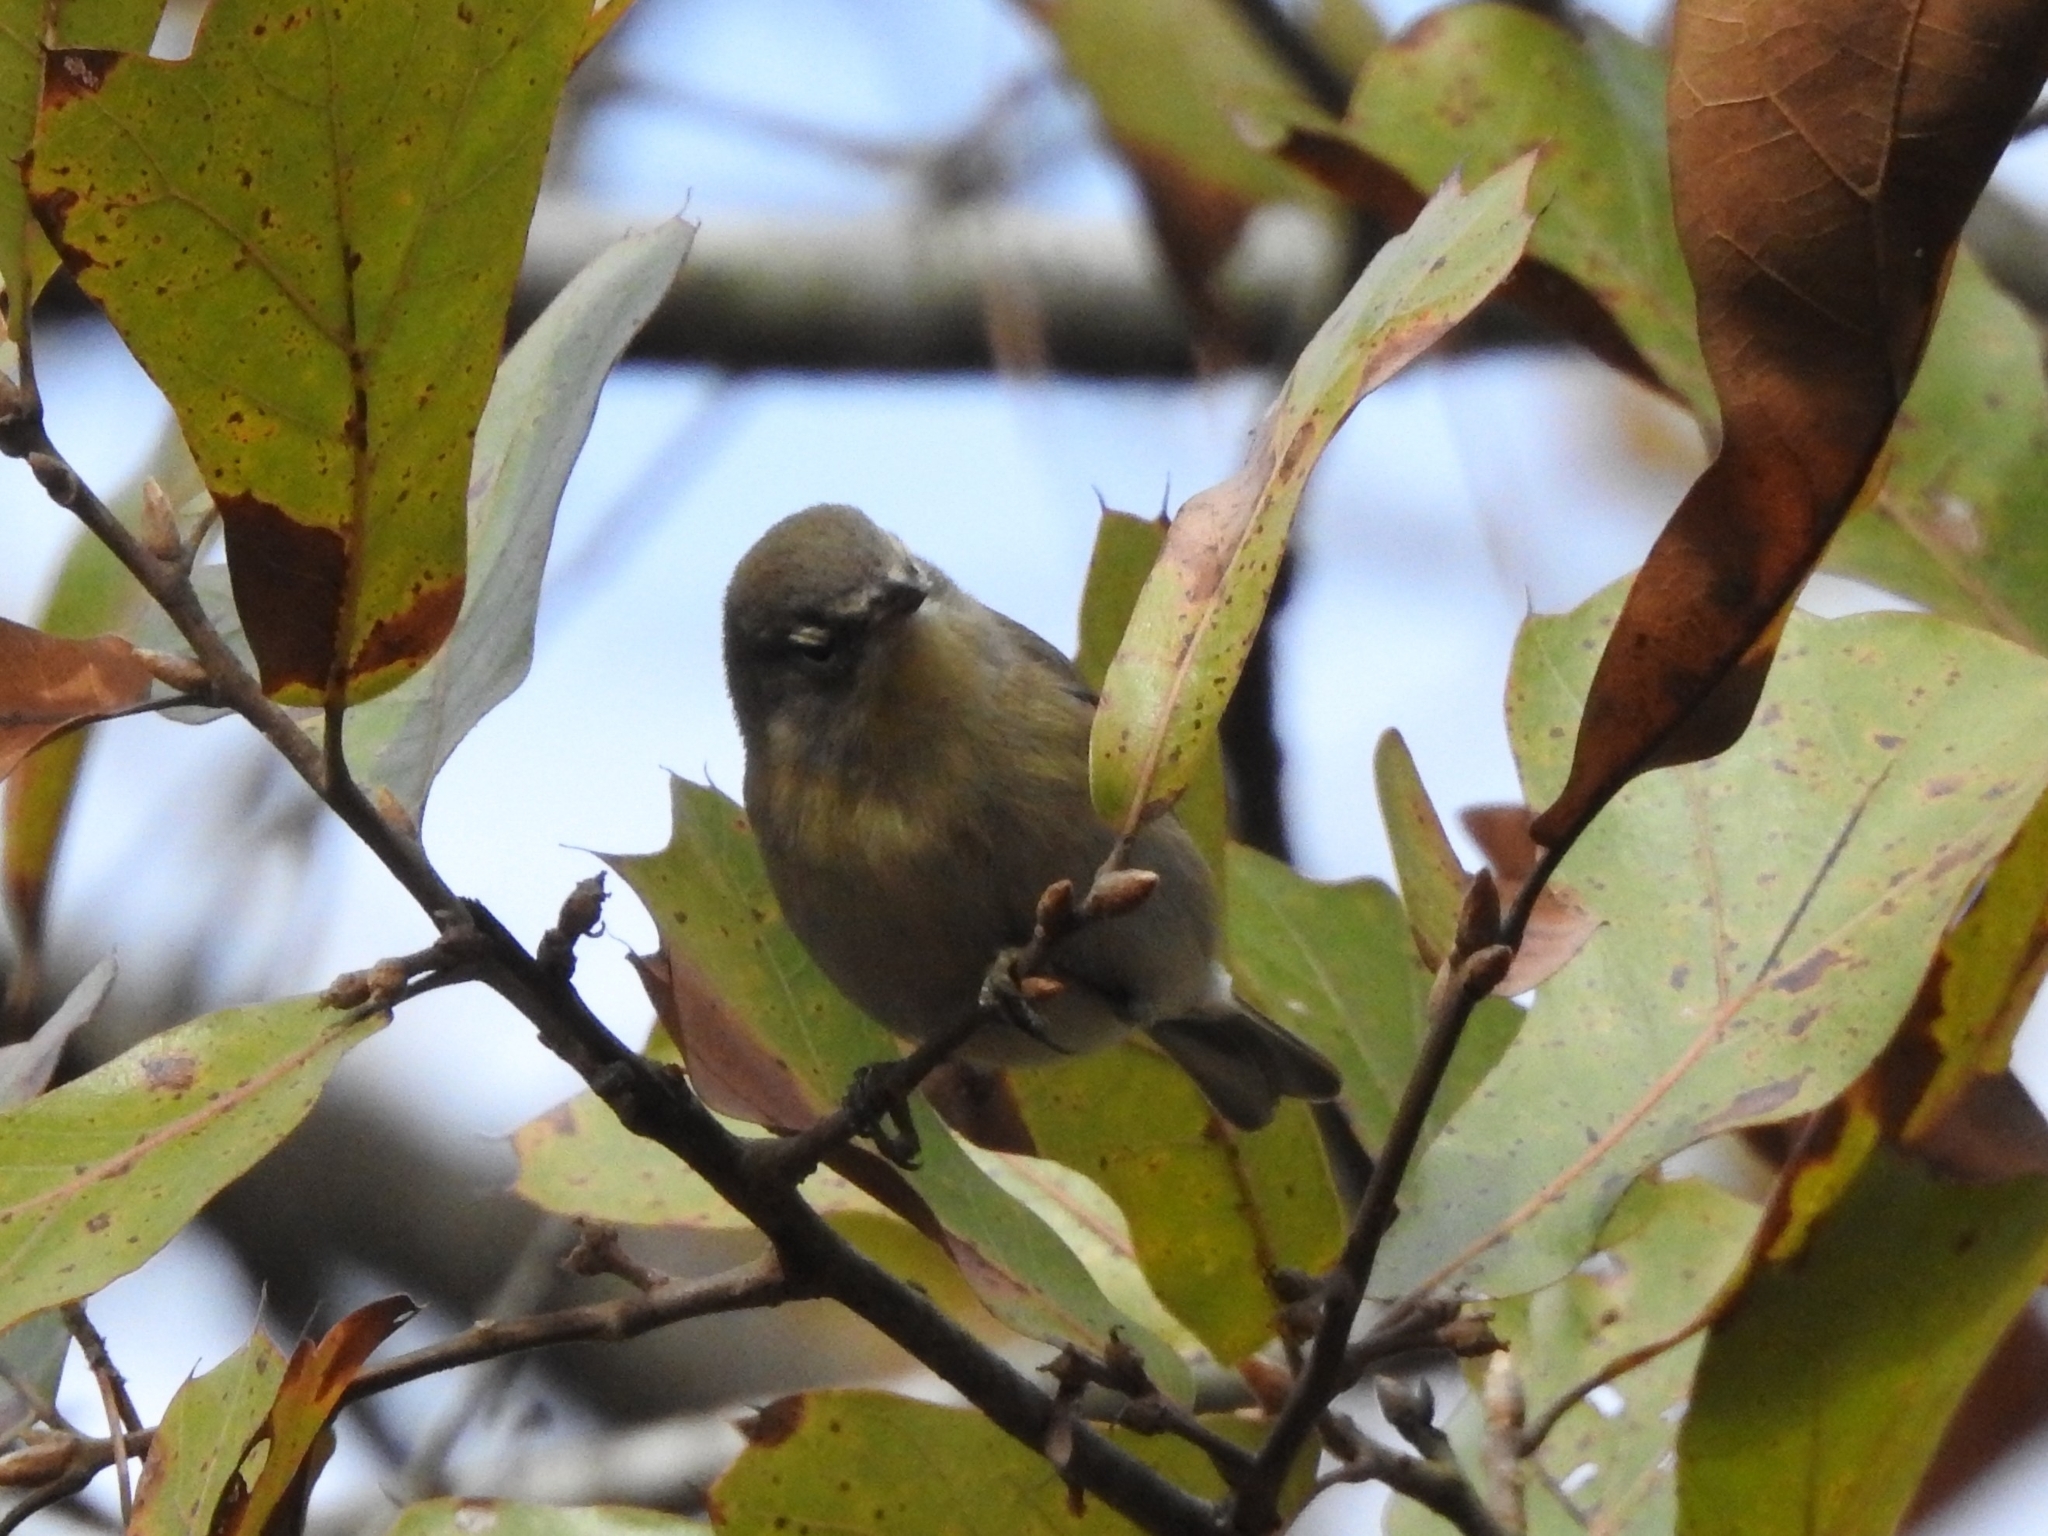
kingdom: Animalia
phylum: Chordata
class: Aves
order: Passeriformes
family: Parulidae
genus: Setophaga
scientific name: Setophaga pinus
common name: Pine warbler
